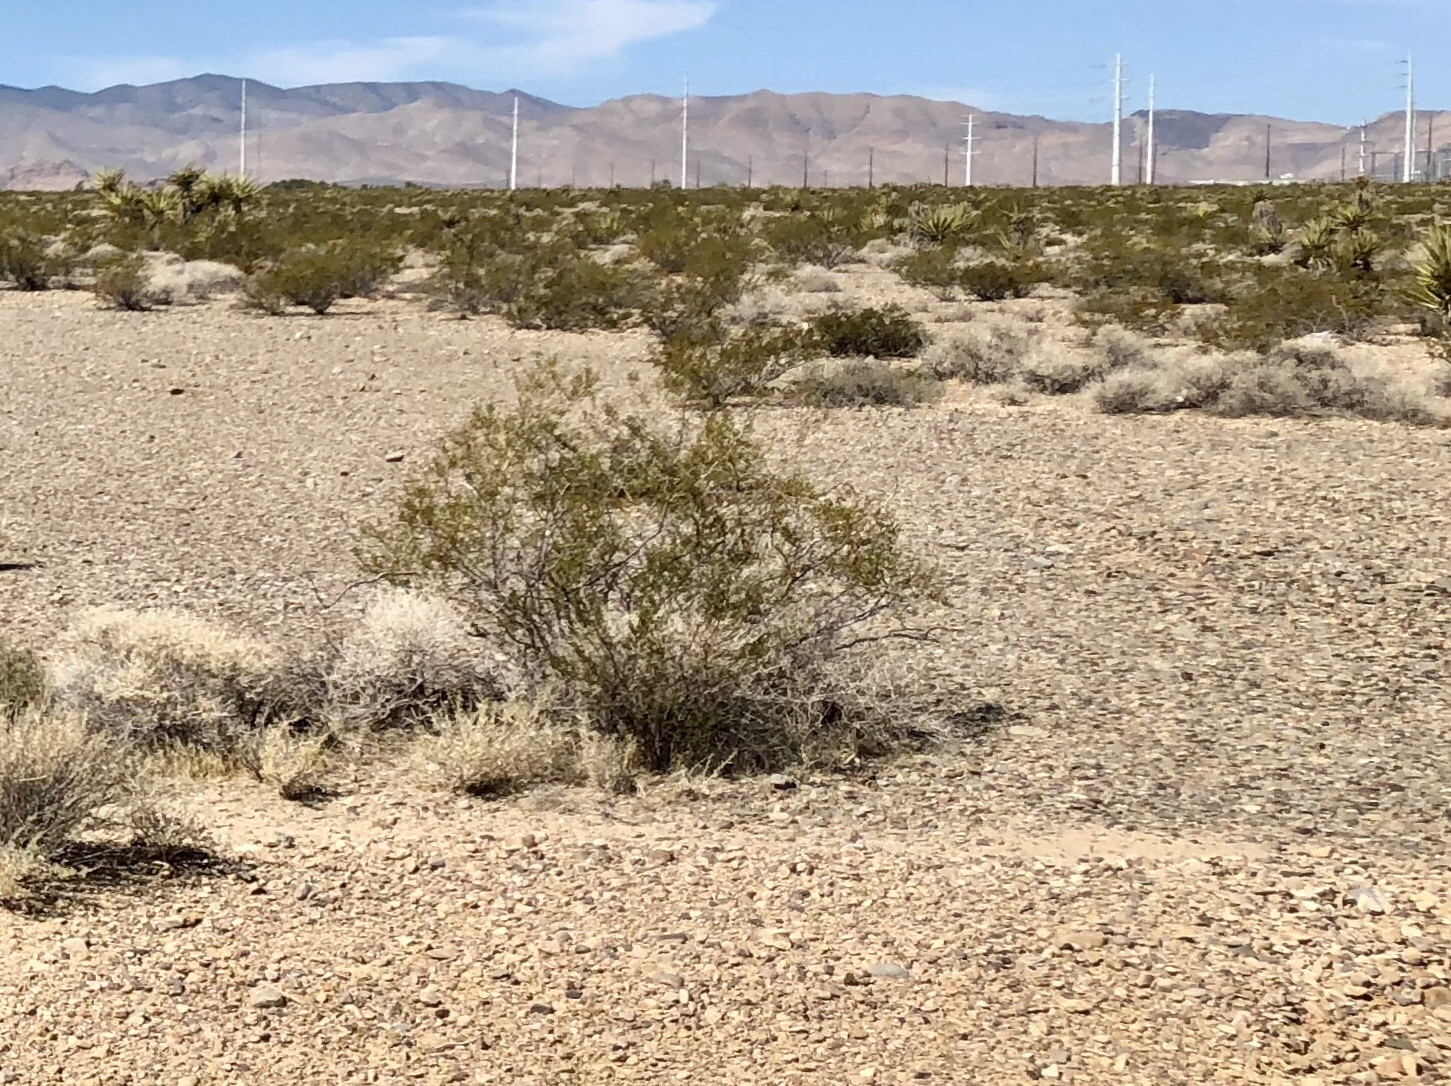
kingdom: Plantae
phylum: Tracheophyta
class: Magnoliopsida
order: Zygophyllales
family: Zygophyllaceae
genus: Larrea
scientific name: Larrea tridentata
